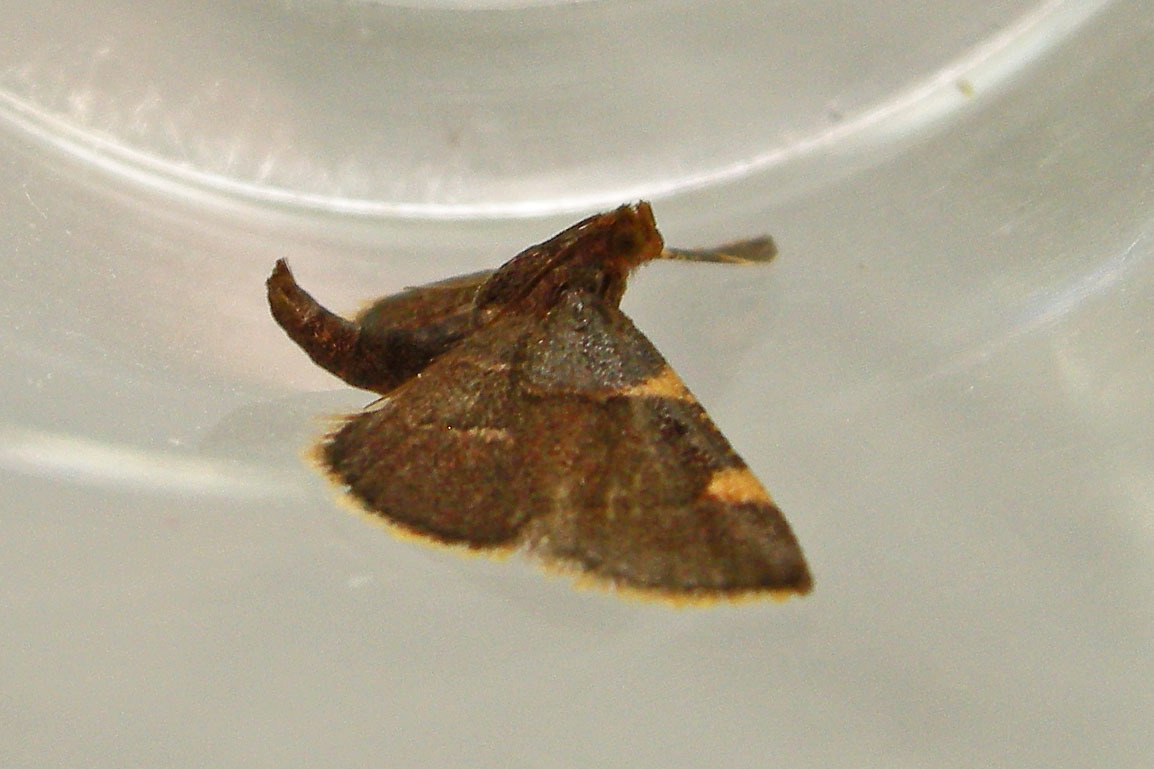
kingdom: Animalia
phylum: Arthropoda
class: Insecta
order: Lepidoptera
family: Pyralidae
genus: Hypsopygia
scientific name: Hypsopygia olinalis
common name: Yellow-fringed dolichomia moth
